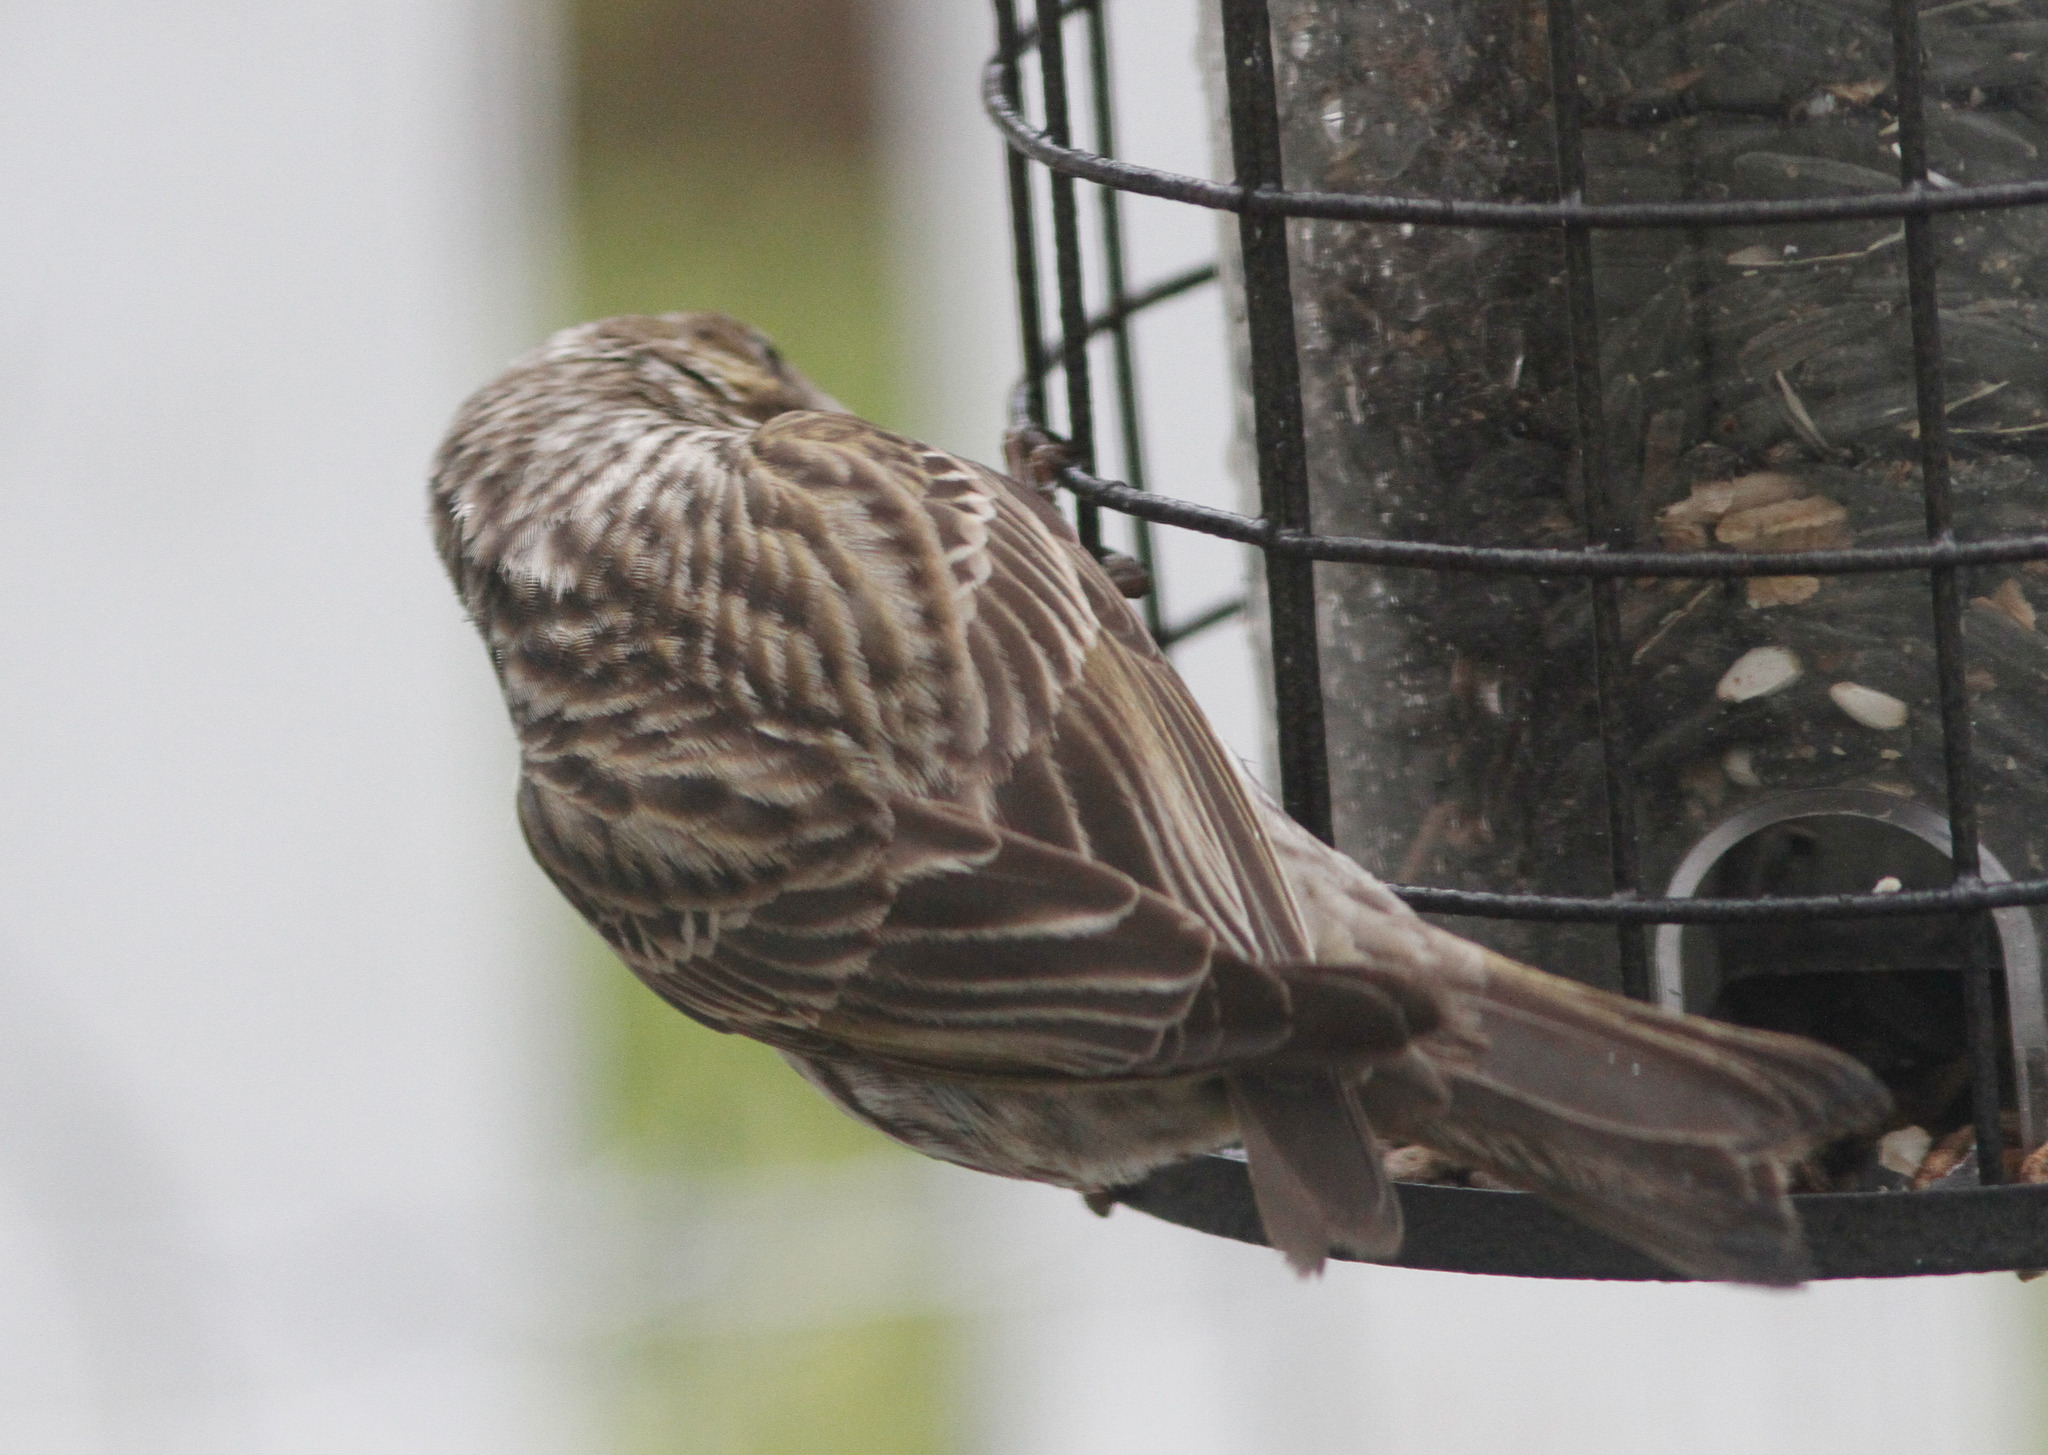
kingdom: Animalia
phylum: Chordata
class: Aves
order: Passeriformes
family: Fringillidae
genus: Haemorhous
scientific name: Haemorhous cassinii
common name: Cassin's finch
